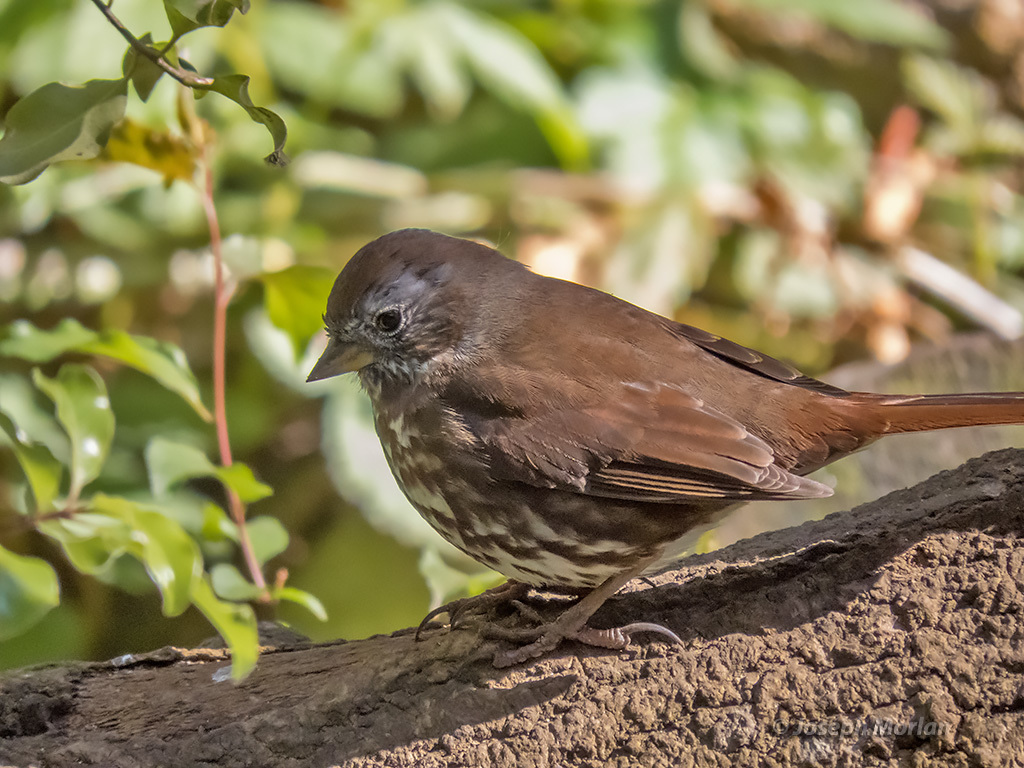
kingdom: Animalia
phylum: Chordata
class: Aves
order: Passeriformes
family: Passerellidae
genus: Passerella
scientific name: Passerella iliaca
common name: Fox sparrow
